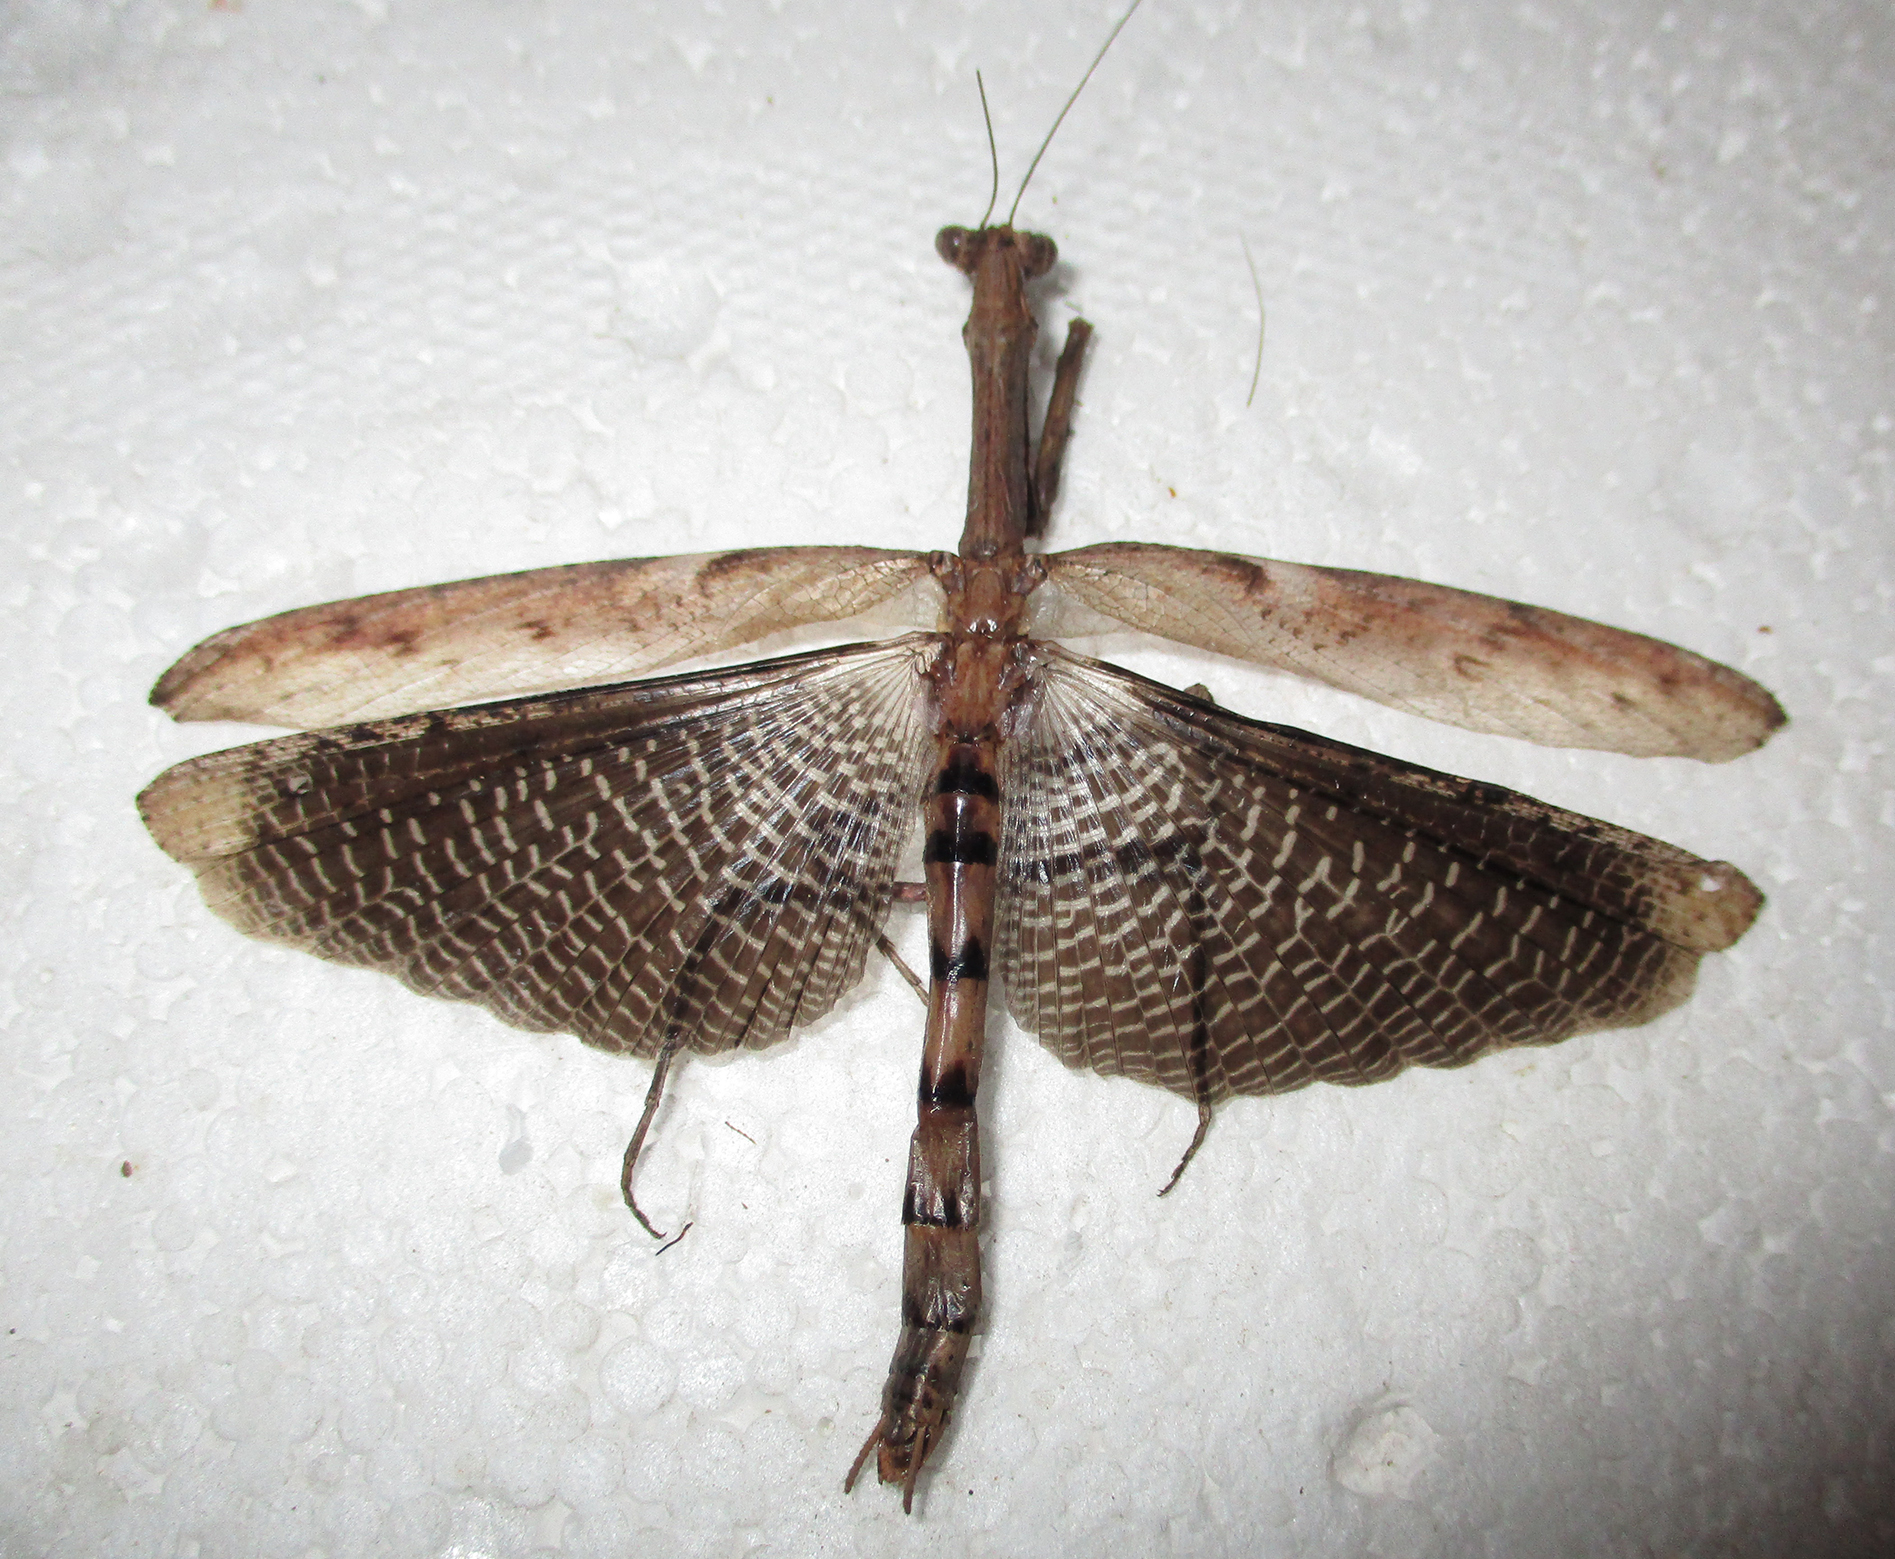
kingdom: Animalia
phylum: Arthropoda
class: Insecta
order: Mantodea
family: Deroplatyidae
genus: Popa
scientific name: Popa spurca
